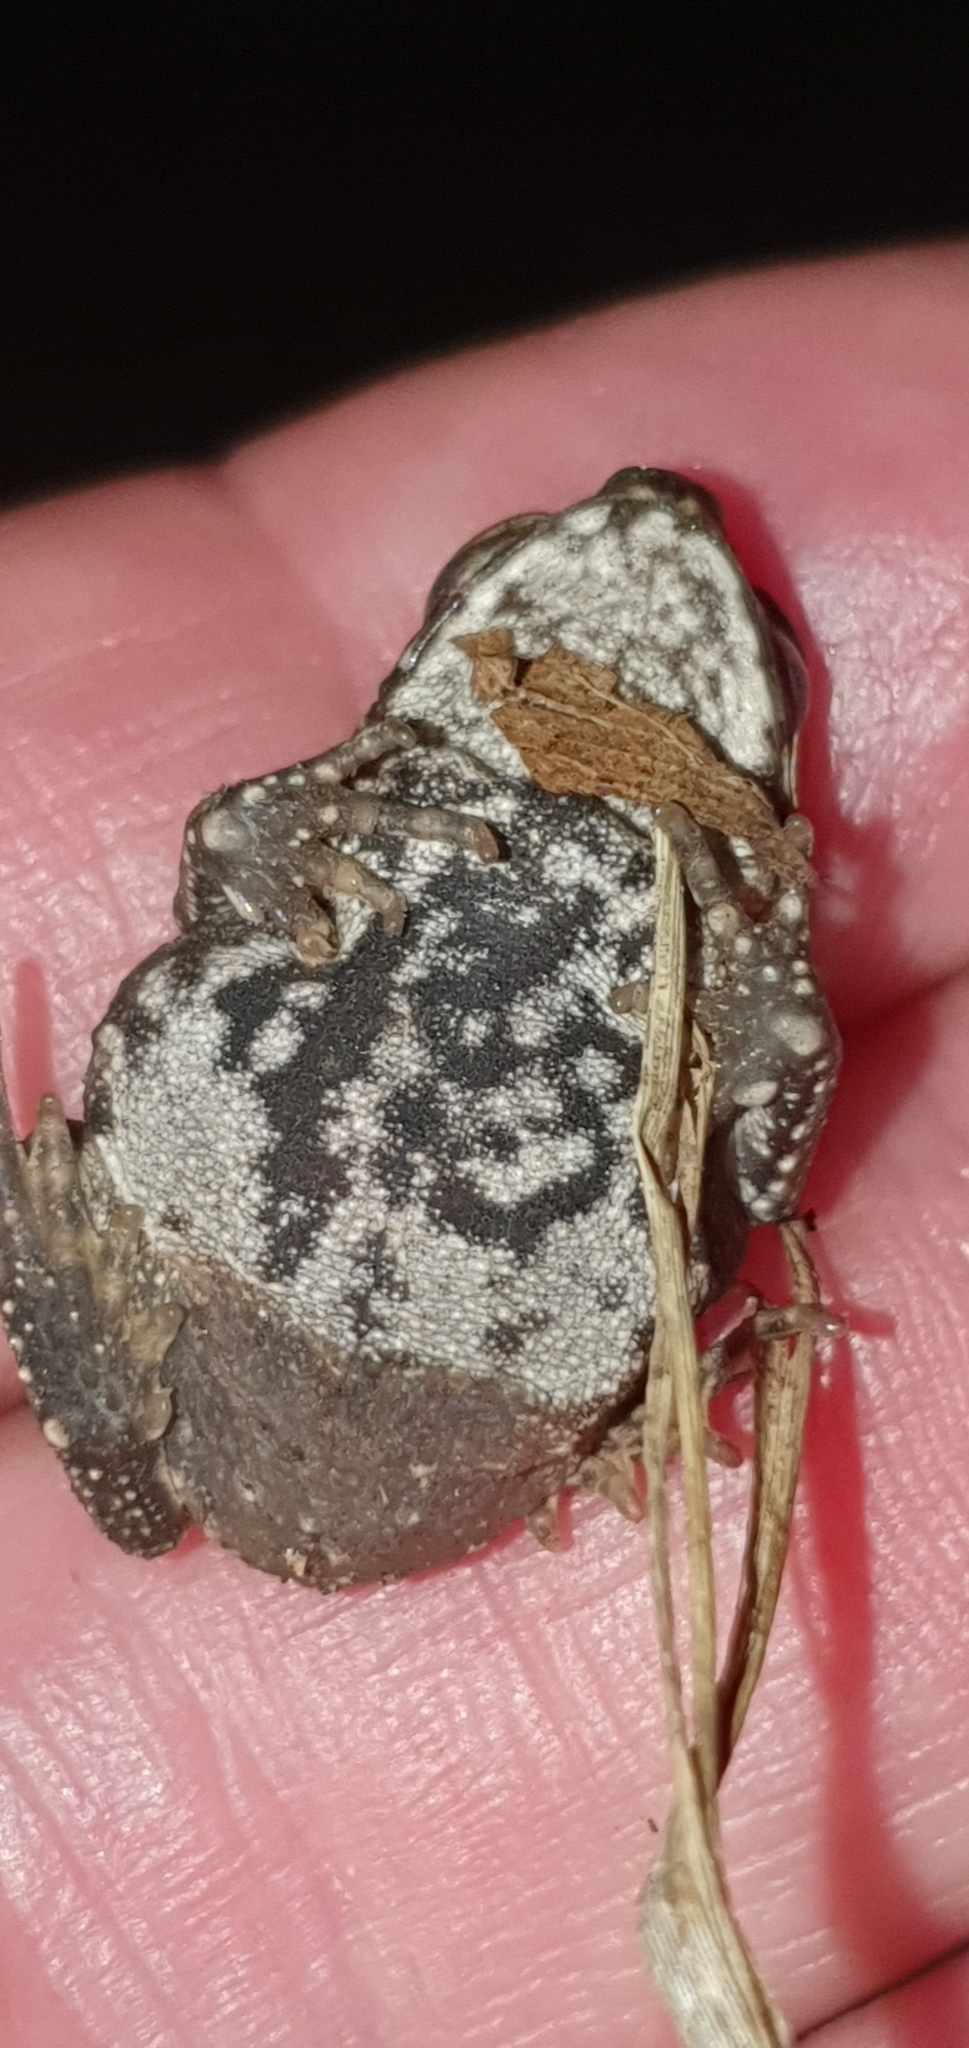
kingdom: Animalia
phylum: Chordata
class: Amphibia
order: Anura
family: Bufonidae
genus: Rhinella
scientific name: Rhinella marina
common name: Cane toad
